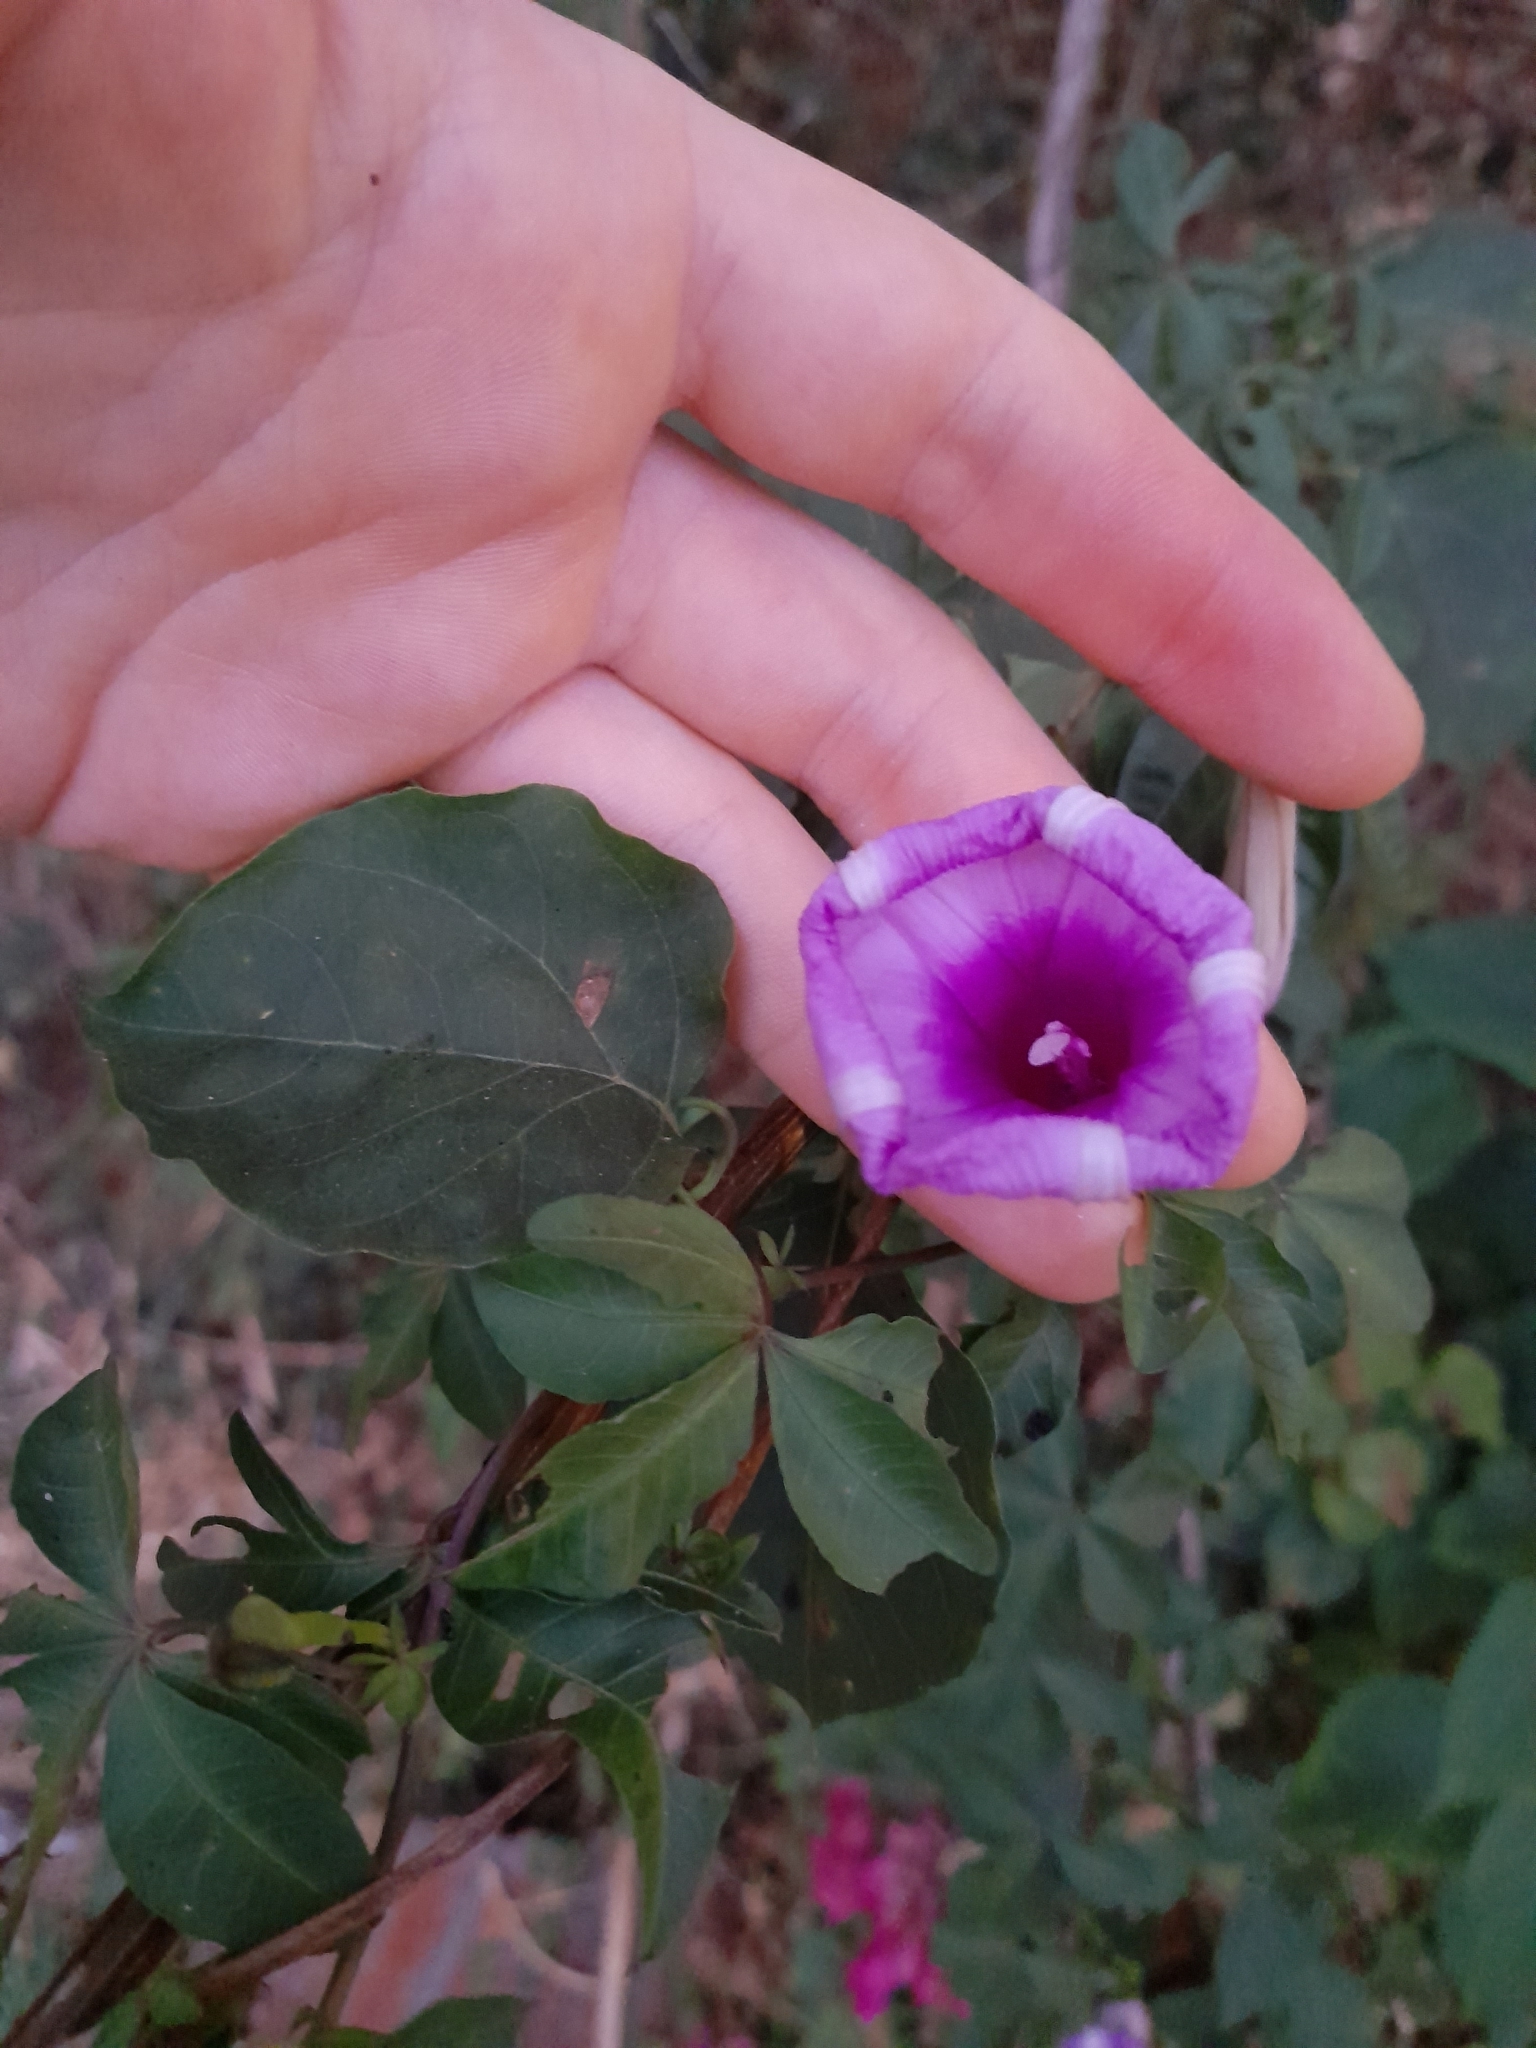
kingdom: Plantae
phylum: Tracheophyta
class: Magnoliopsida
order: Solanales
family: Convolvulaceae
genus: Ipomoea
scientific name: Ipomoea cairica
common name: Mile a minute vine
